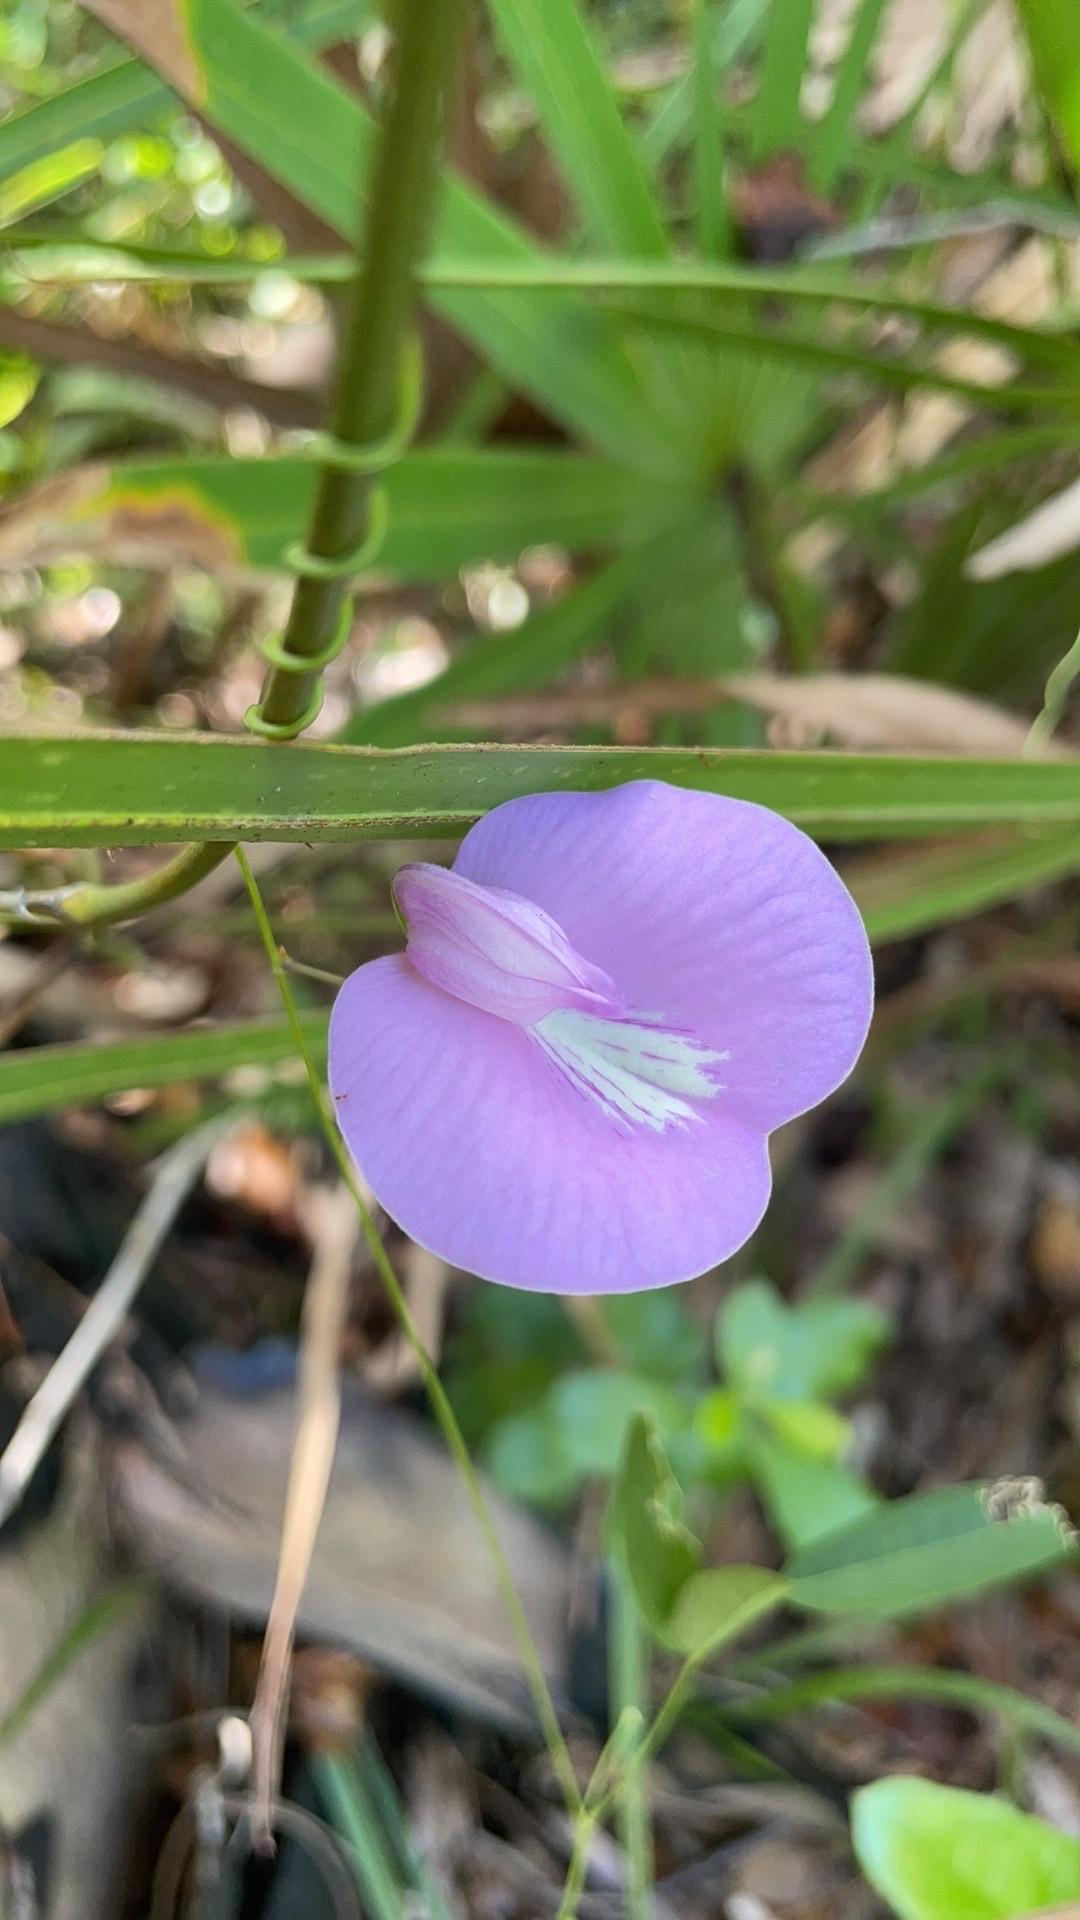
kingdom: Plantae
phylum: Tracheophyta
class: Magnoliopsida
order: Fabales
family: Fabaceae
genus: Centrosema
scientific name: Centrosema virginianum
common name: Butterfly-pea
